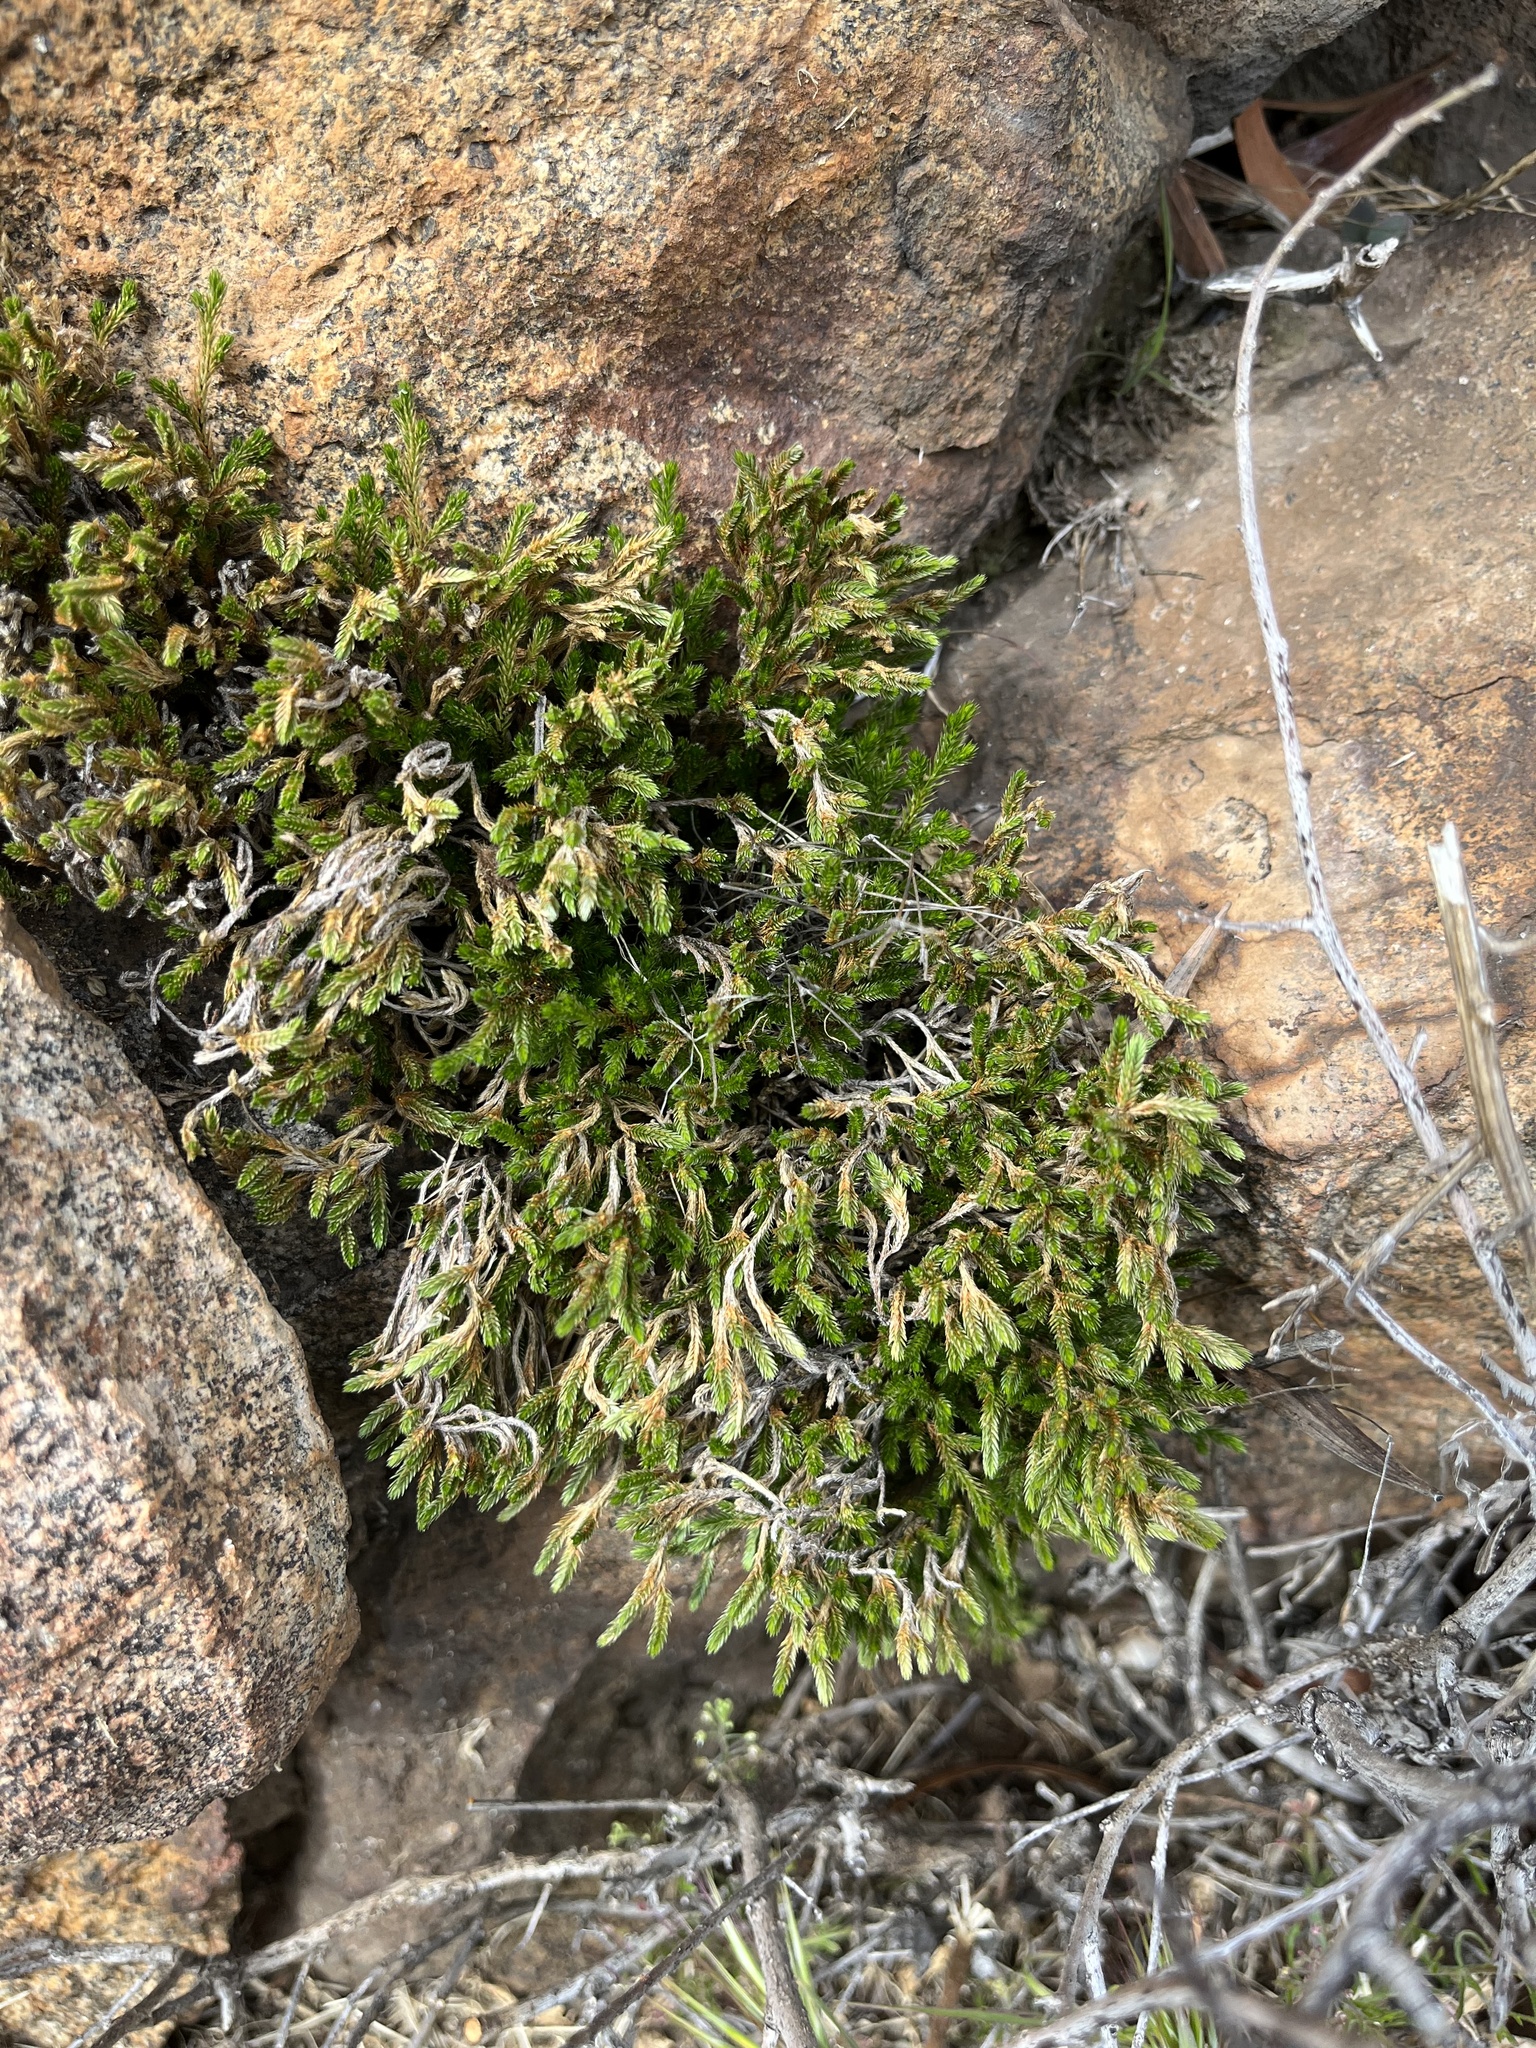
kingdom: Plantae
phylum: Tracheophyta
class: Lycopodiopsida
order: Selaginellales
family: Selaginellaceae
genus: Selaginella
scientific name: Selaginella bigelovii
